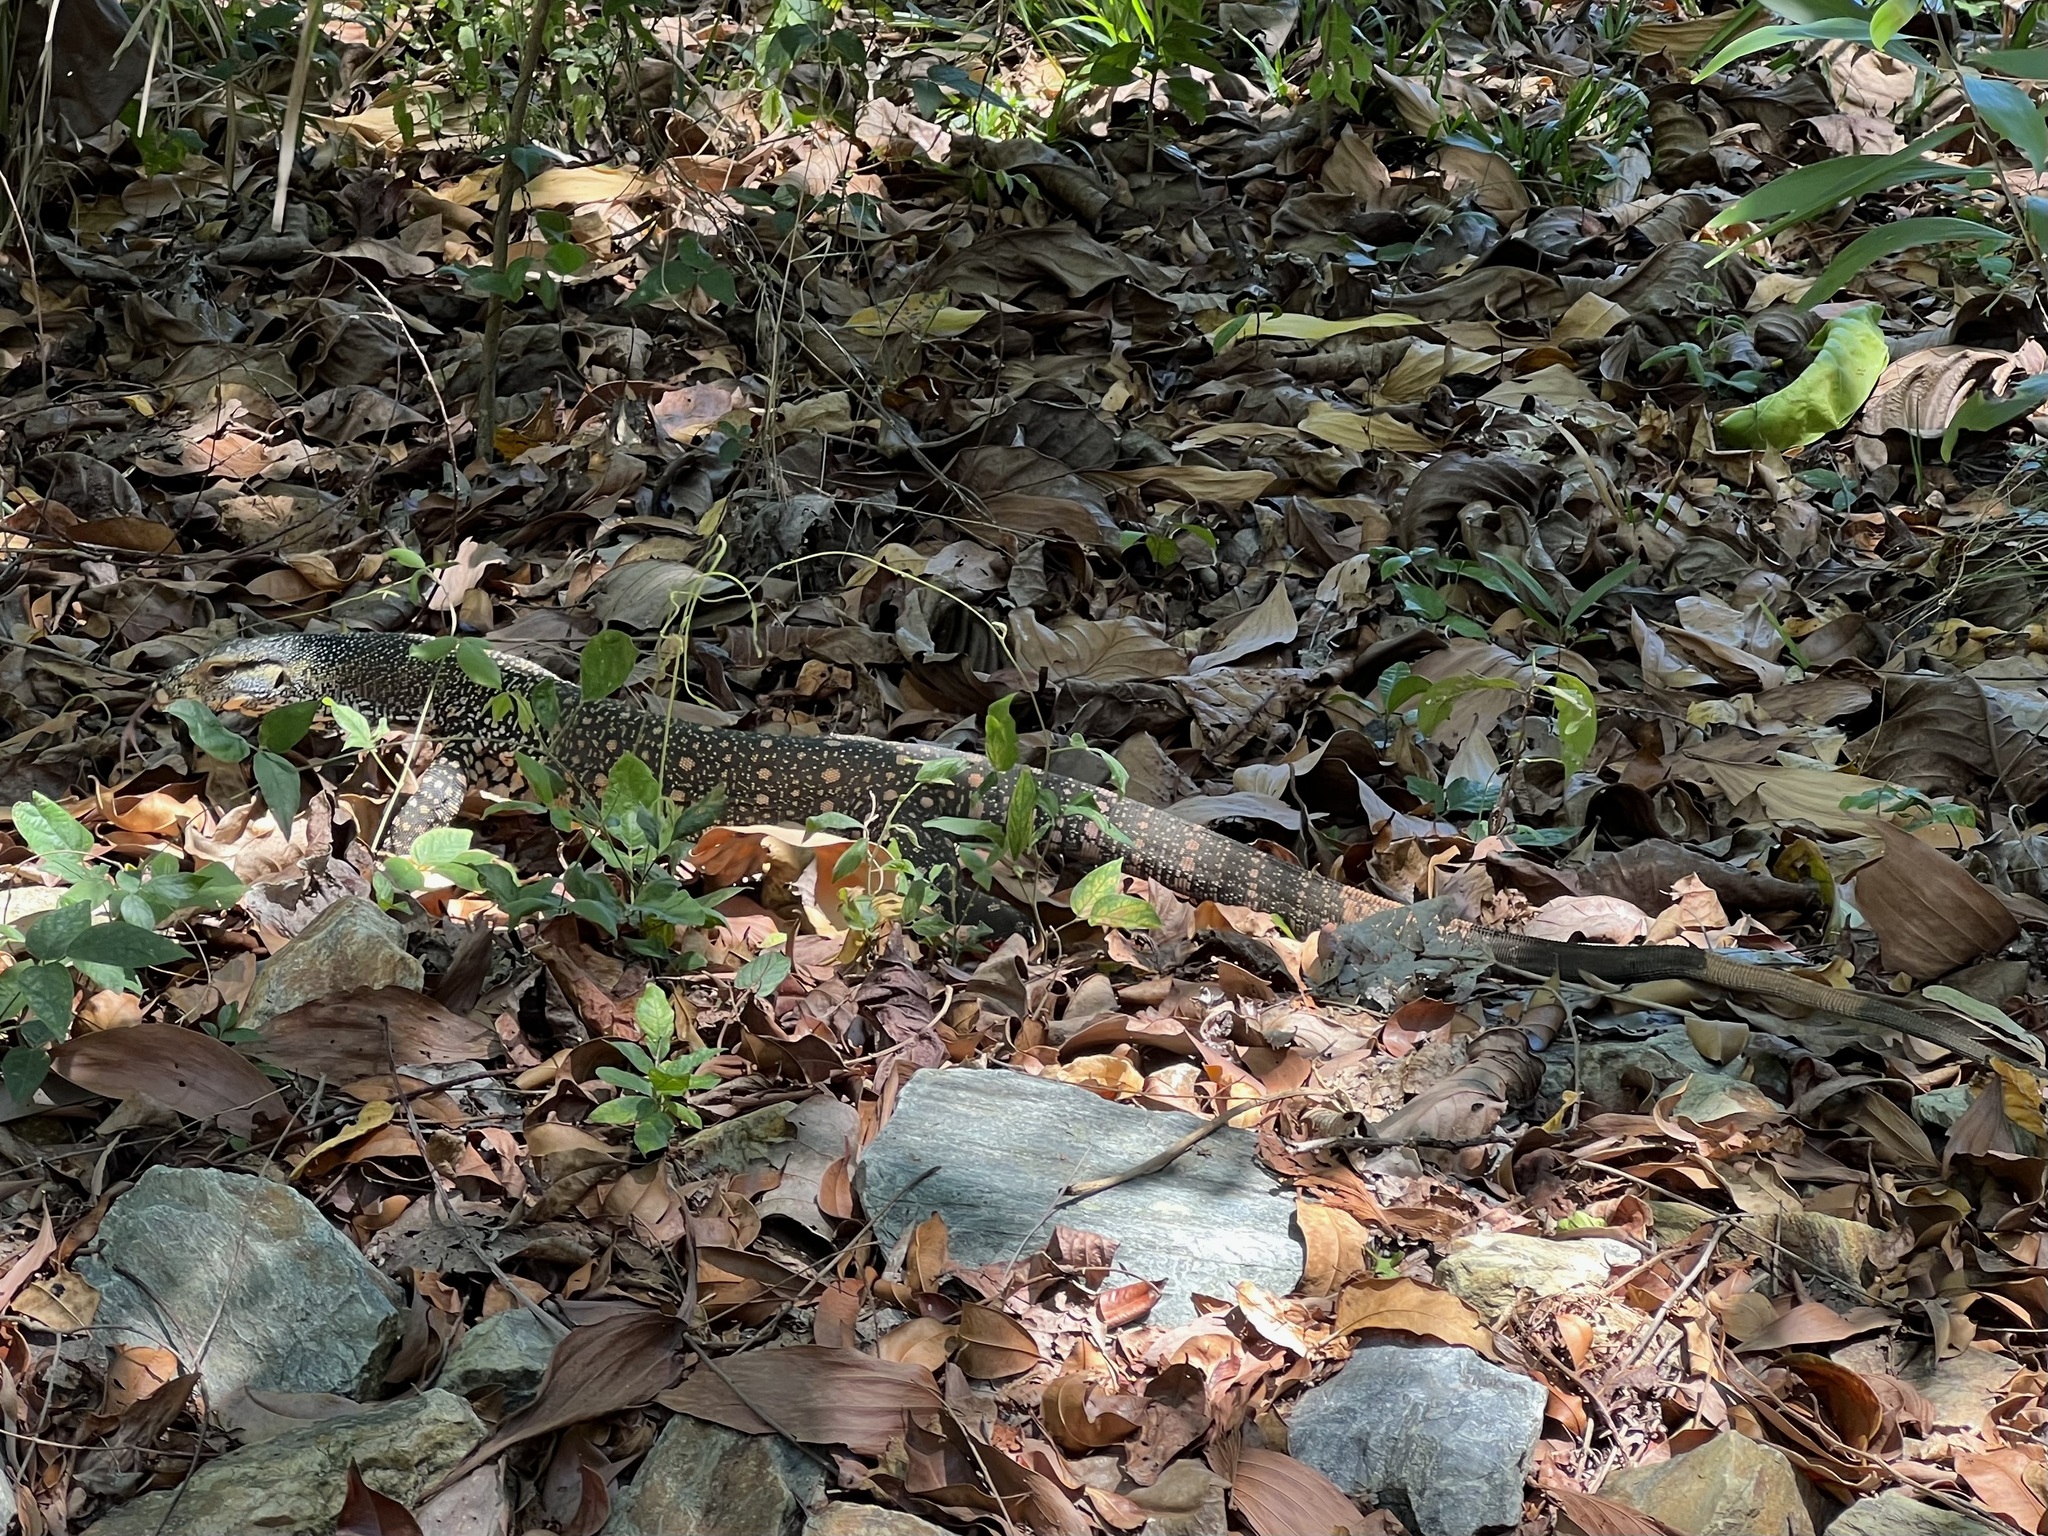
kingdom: Animalia
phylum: Chordata
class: Squamata
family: Varanidae
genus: Varanus
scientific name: Varanus varius
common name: Lace monitor
